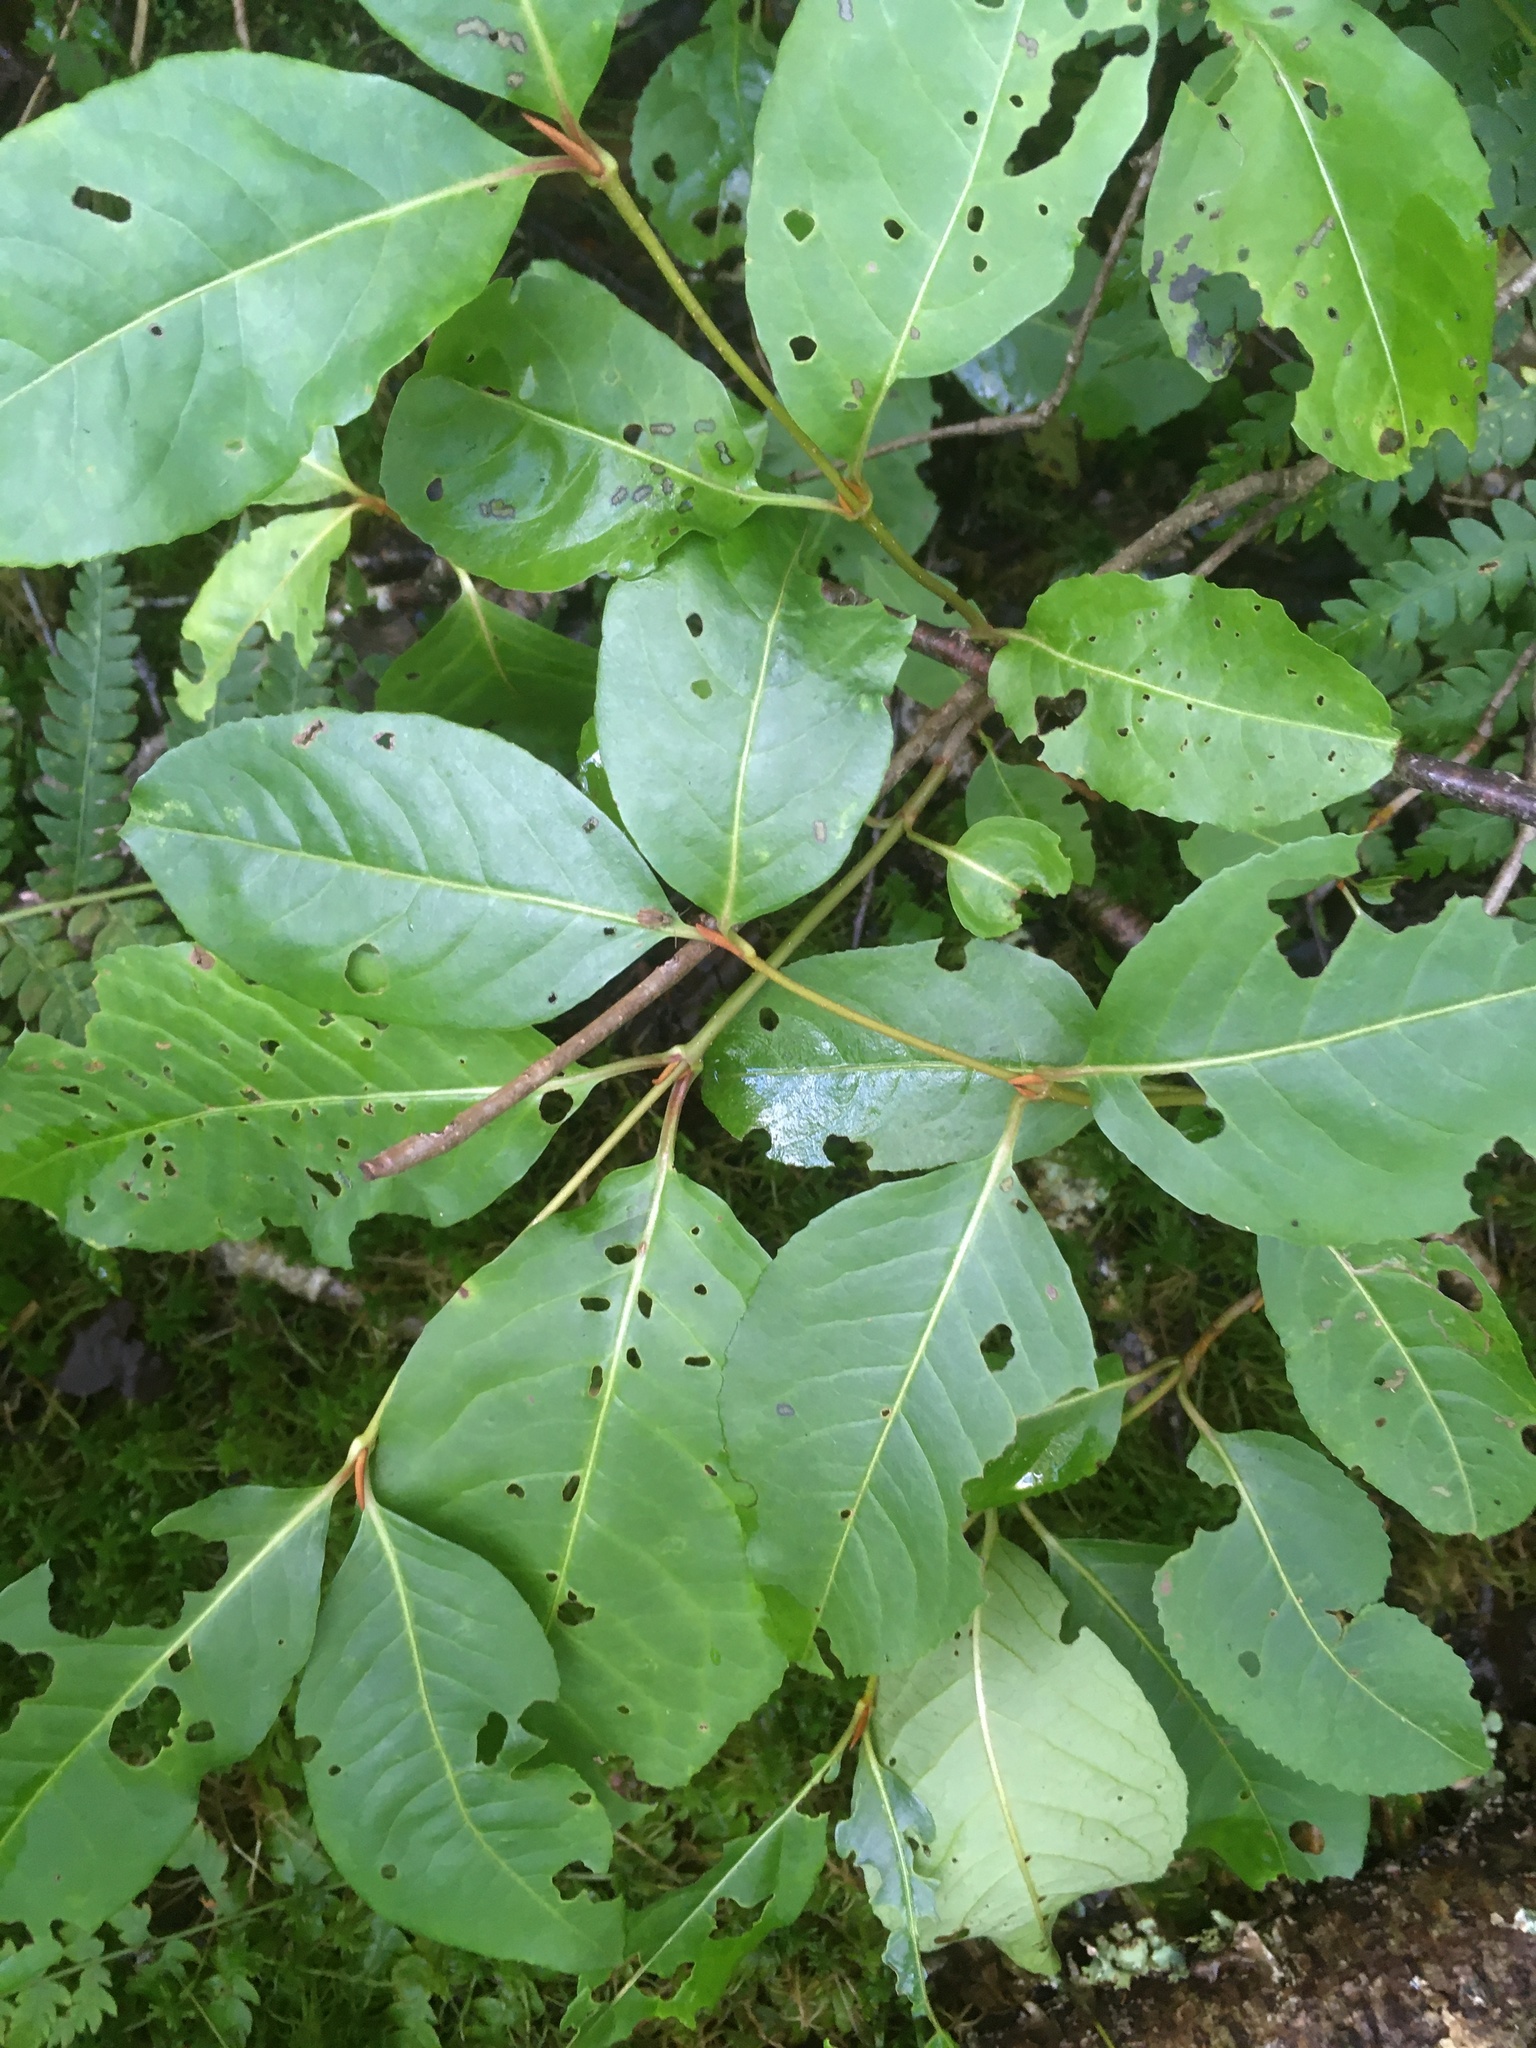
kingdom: Plantae
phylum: Tracheophyta
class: Magnoliopsida
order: Dipsacales
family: Viburnaceae
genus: Viburnum
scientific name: Viburnum cassinoides
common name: Swamp haw
